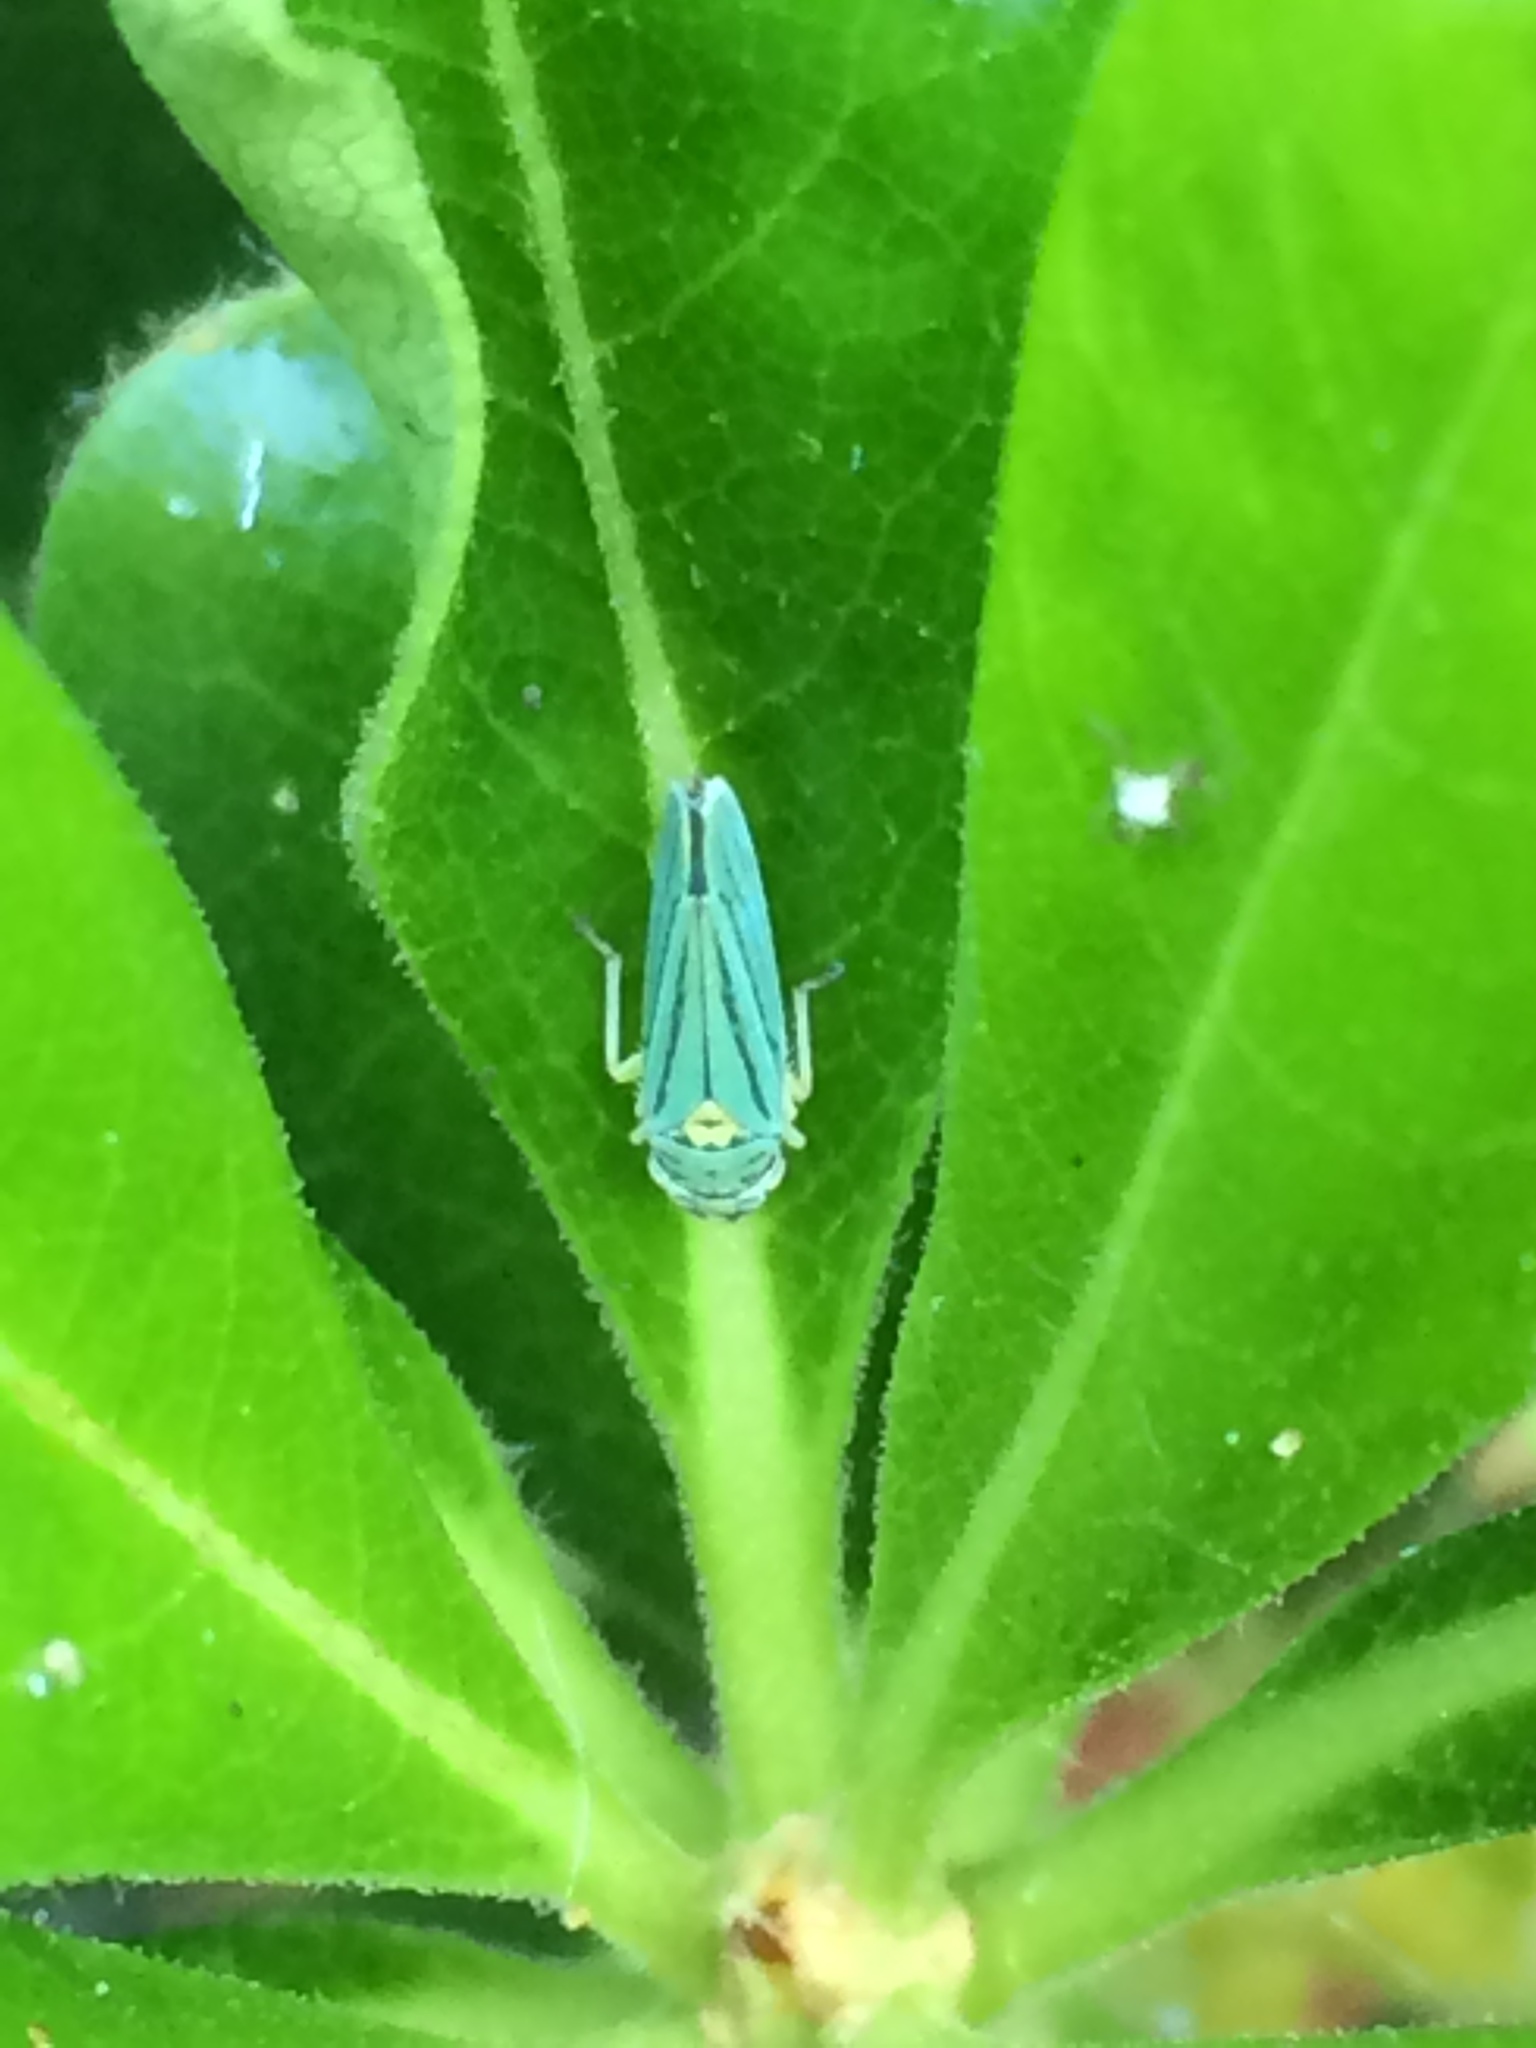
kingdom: Animalia
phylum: Arthropoda
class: Insecta
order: Hemiptera
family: Cicadellidae
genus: Graphocephala
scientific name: Graphocephala atropunctata
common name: Blue-green sharpshooter
